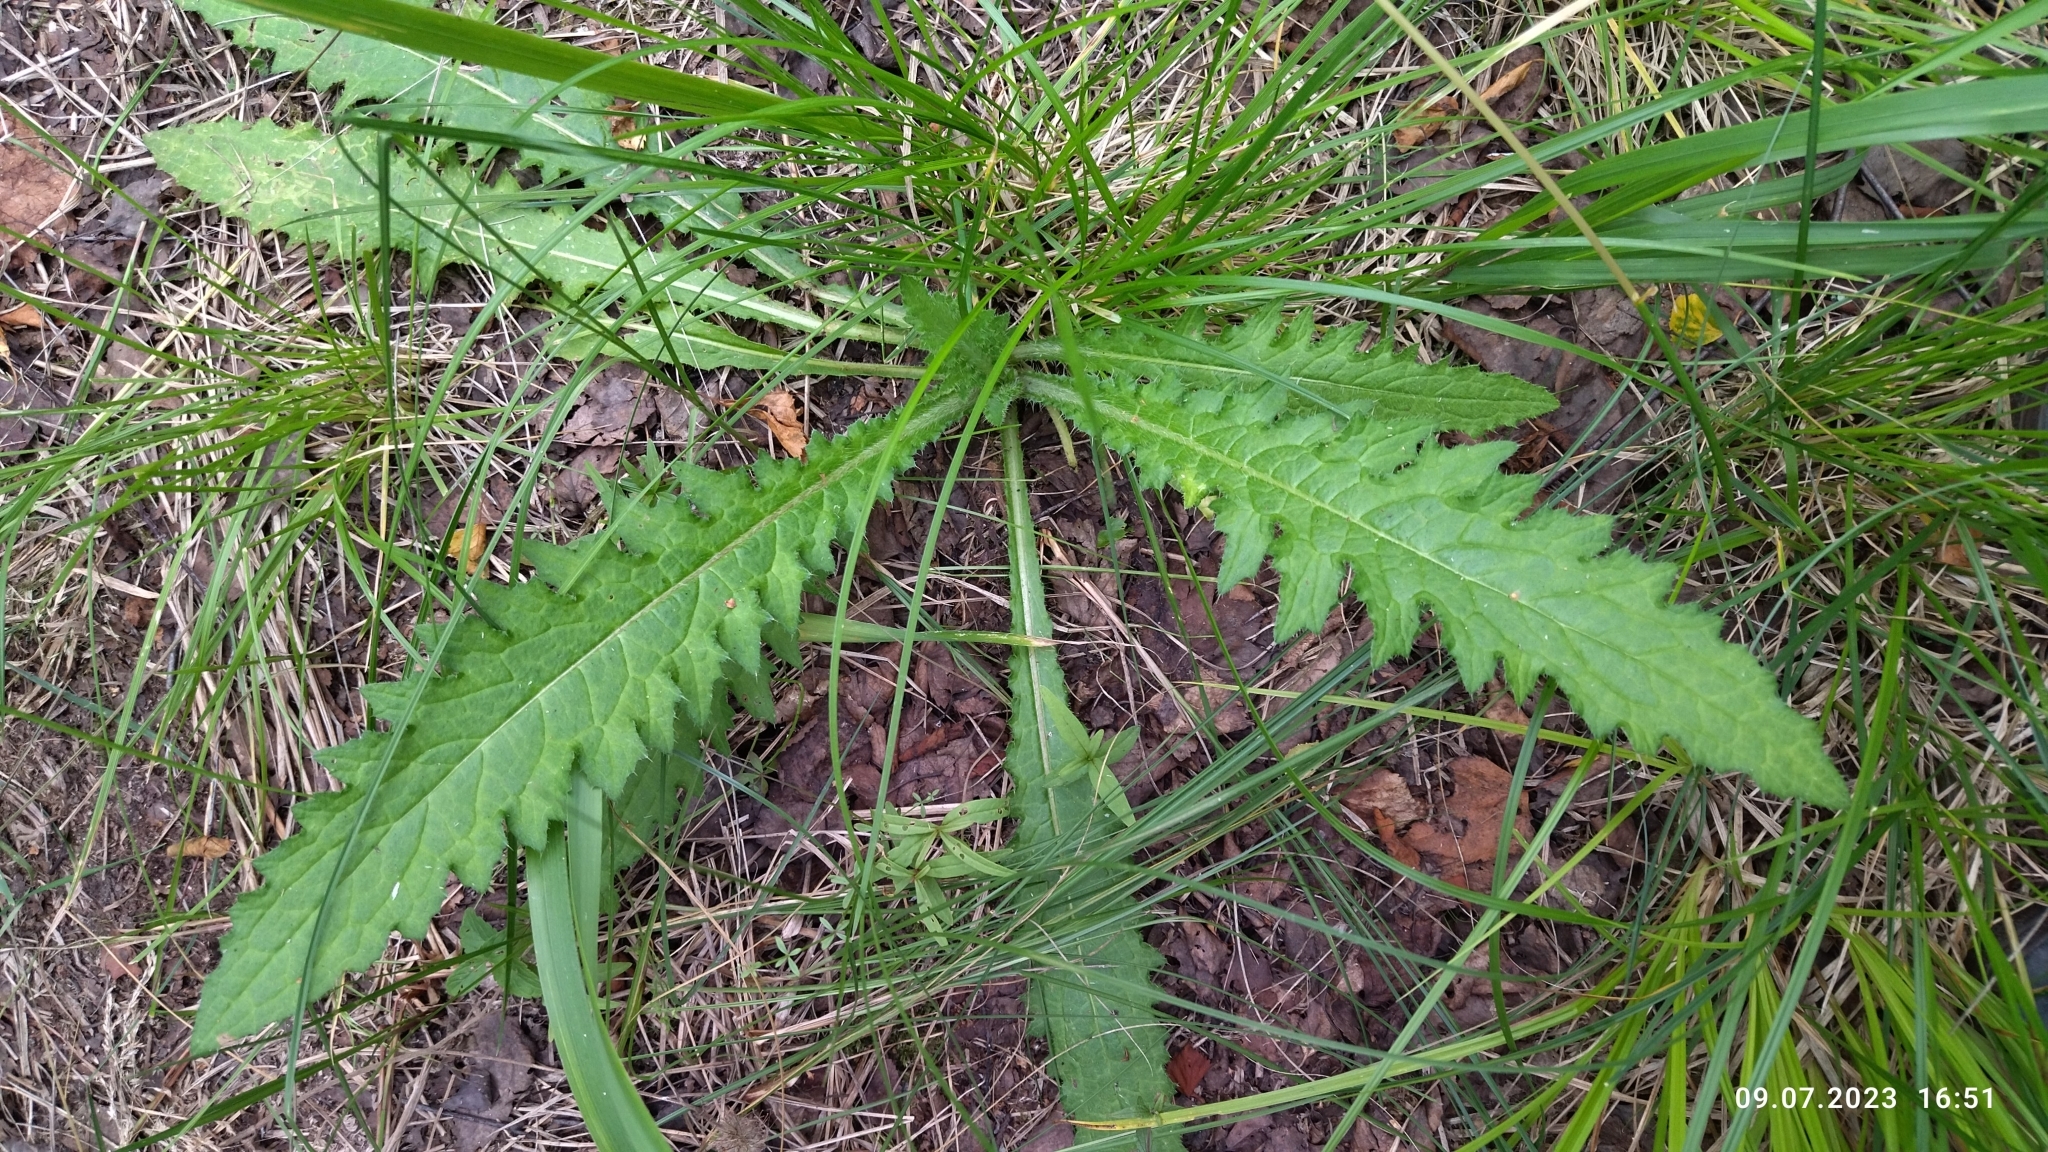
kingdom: Plantae
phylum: Tracheophyta
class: Magnoliopsida
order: Asterales
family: Asteraceae
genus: Cirsium
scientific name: Cirsium palustre
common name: Marsh thistle
